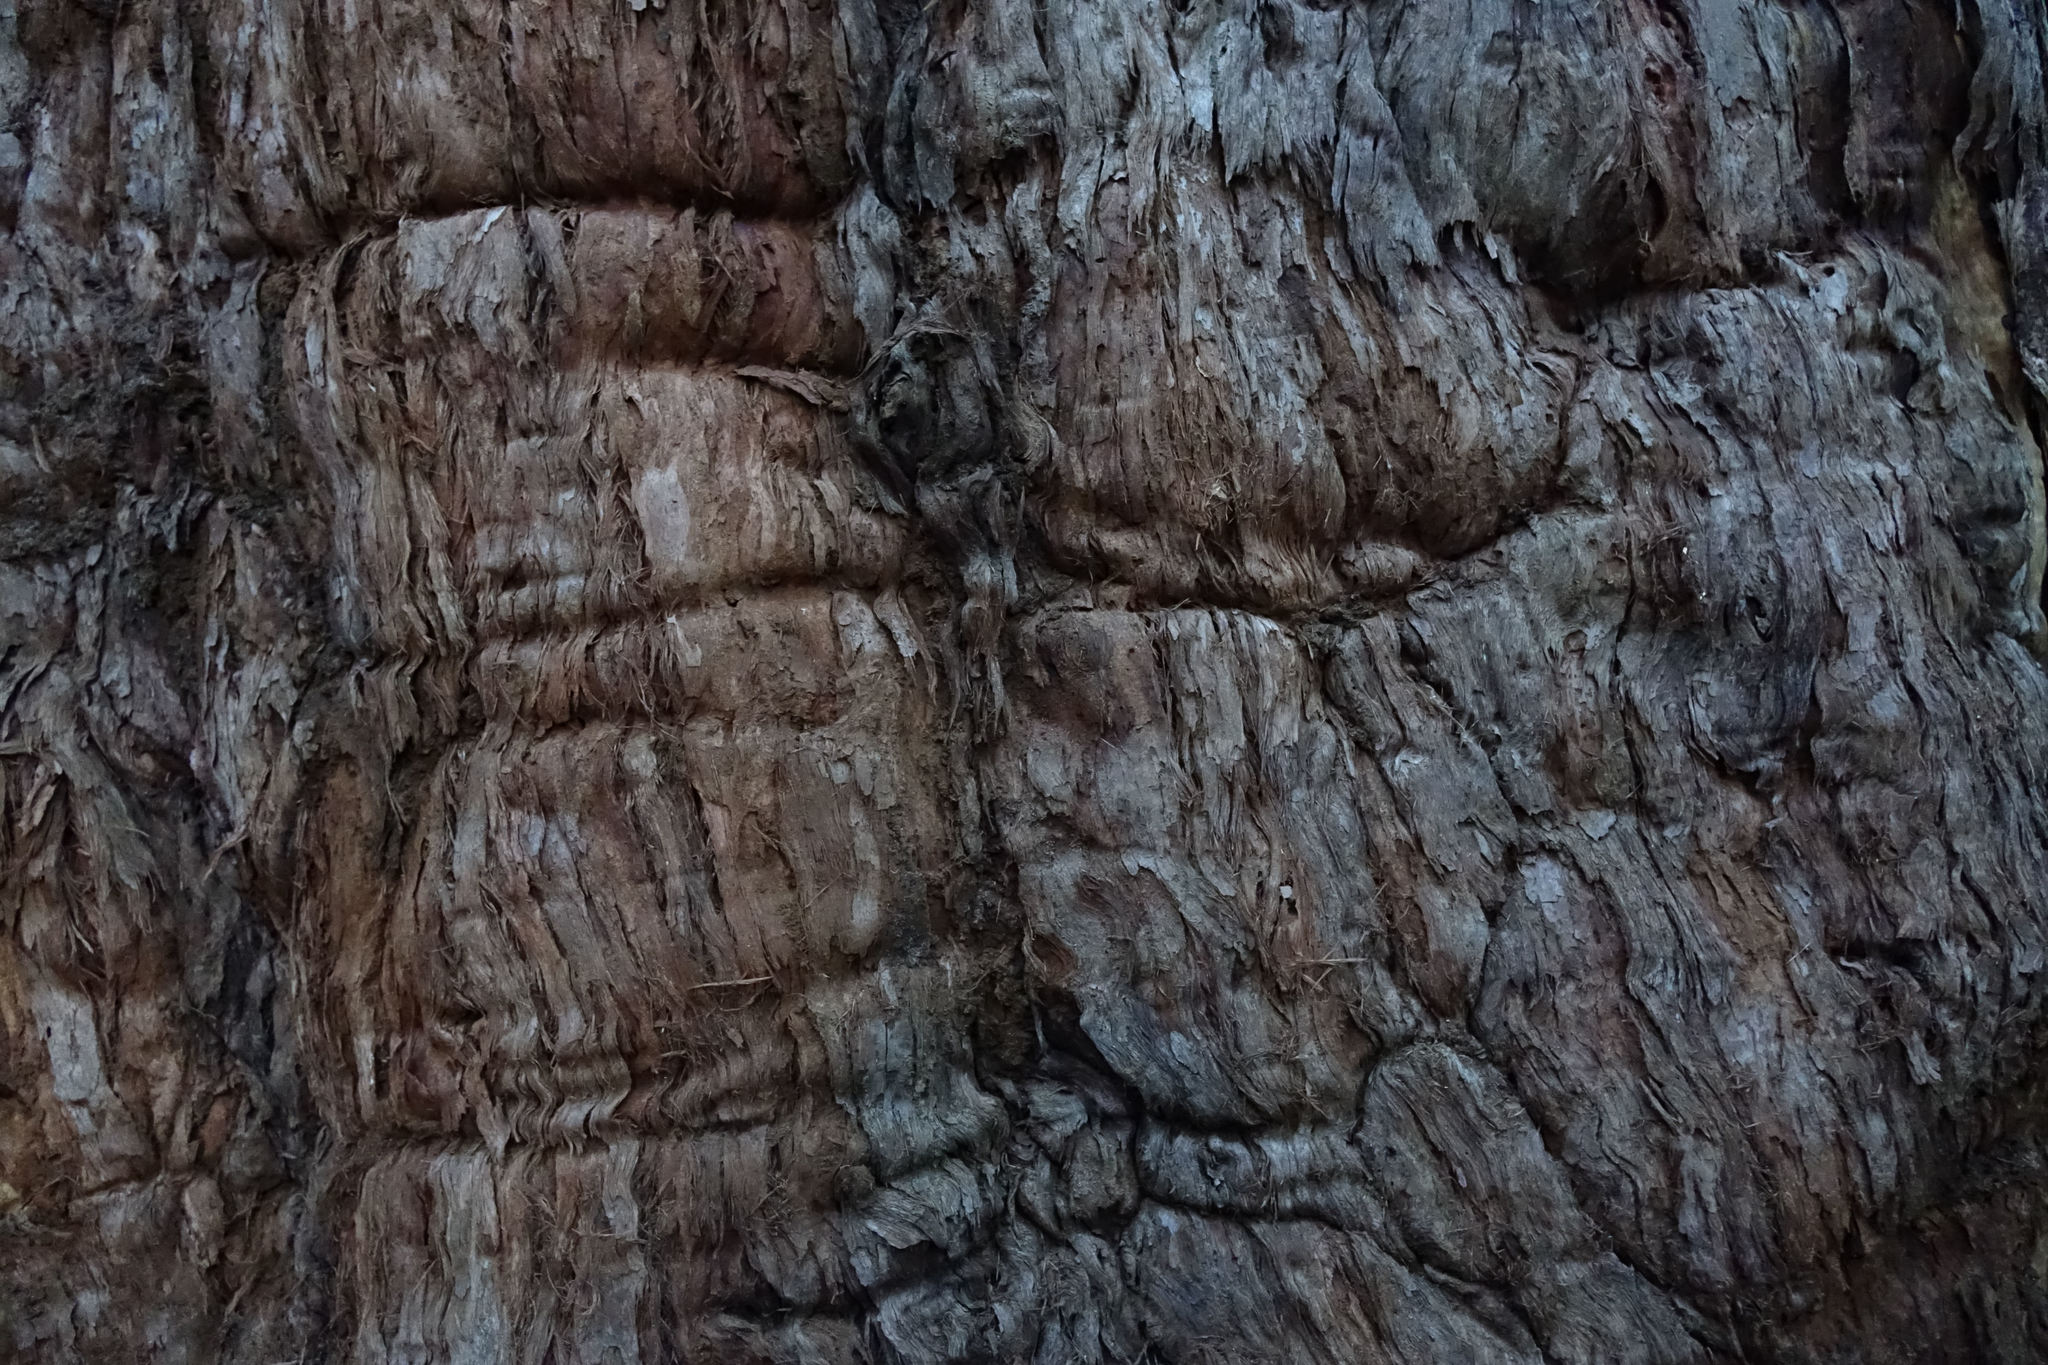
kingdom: Plantae
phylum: Tracheophyta
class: Magnoliopsida
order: Myrtales
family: Myrtaceae
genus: Eucalyptus
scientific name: Eucalyptus microcorys
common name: Tallowwood
